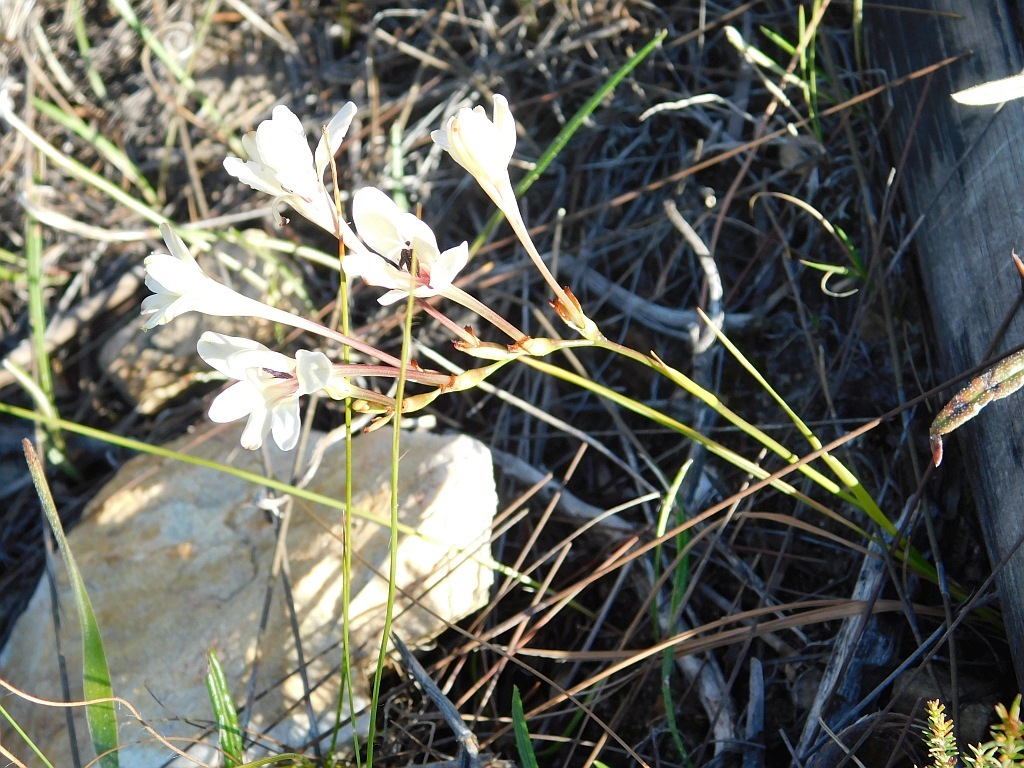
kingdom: Plantae
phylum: Tracheophyta
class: Liliopsida
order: Asparagales
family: Iridaceae
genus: Tritonia
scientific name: Tritonia cooperi
